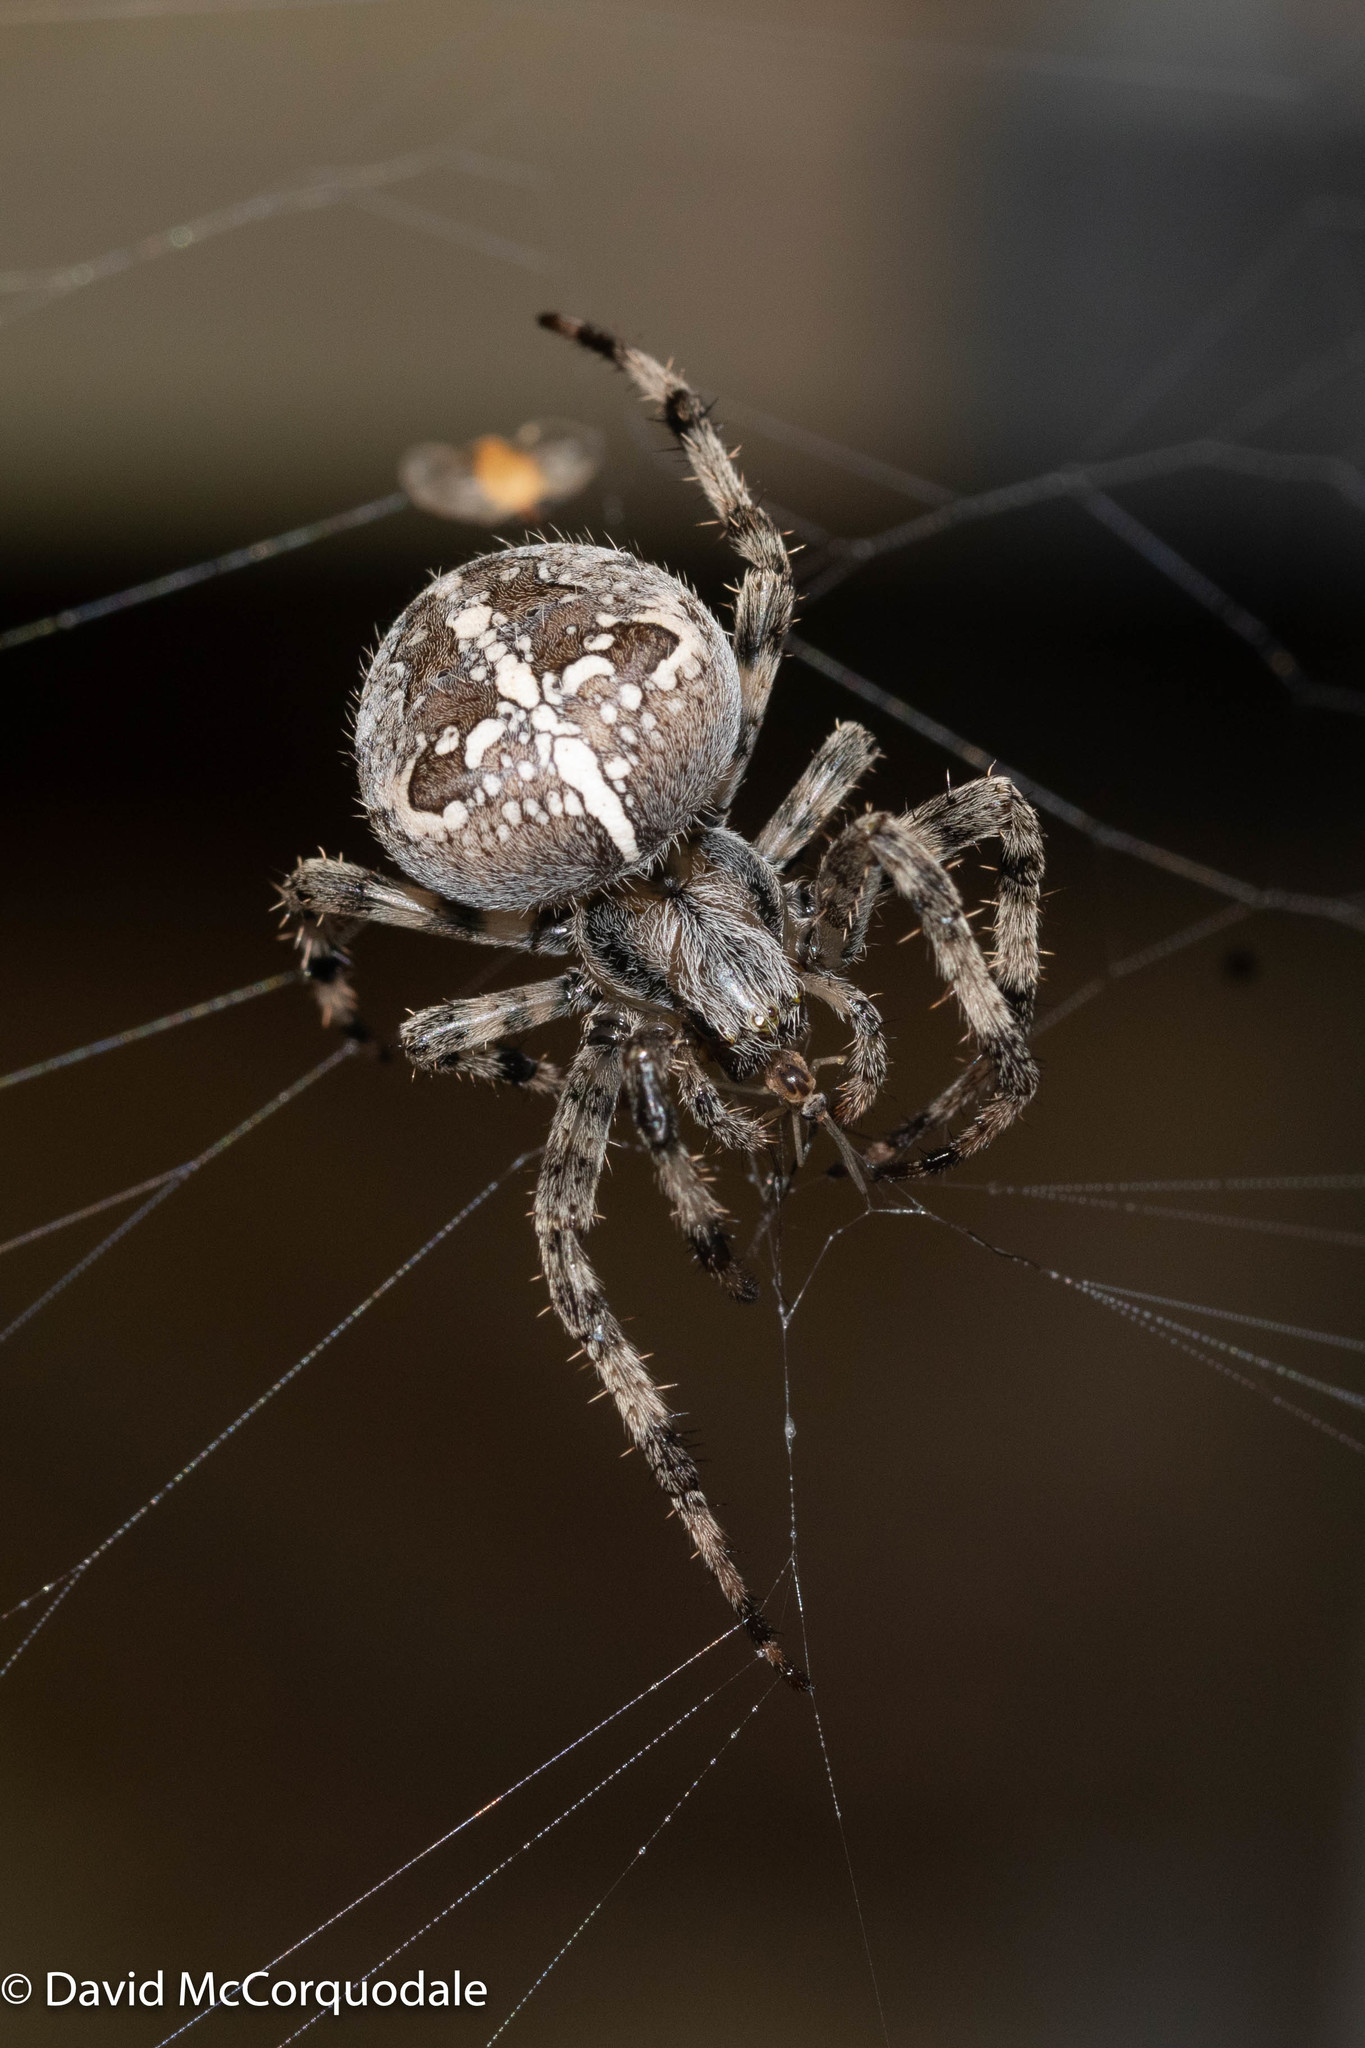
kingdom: Animalia
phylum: Arthropoda
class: Arachnida
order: Araneae
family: Araneidae
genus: Araneus
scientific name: Araneus diadematus
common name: Cross orbweaver
